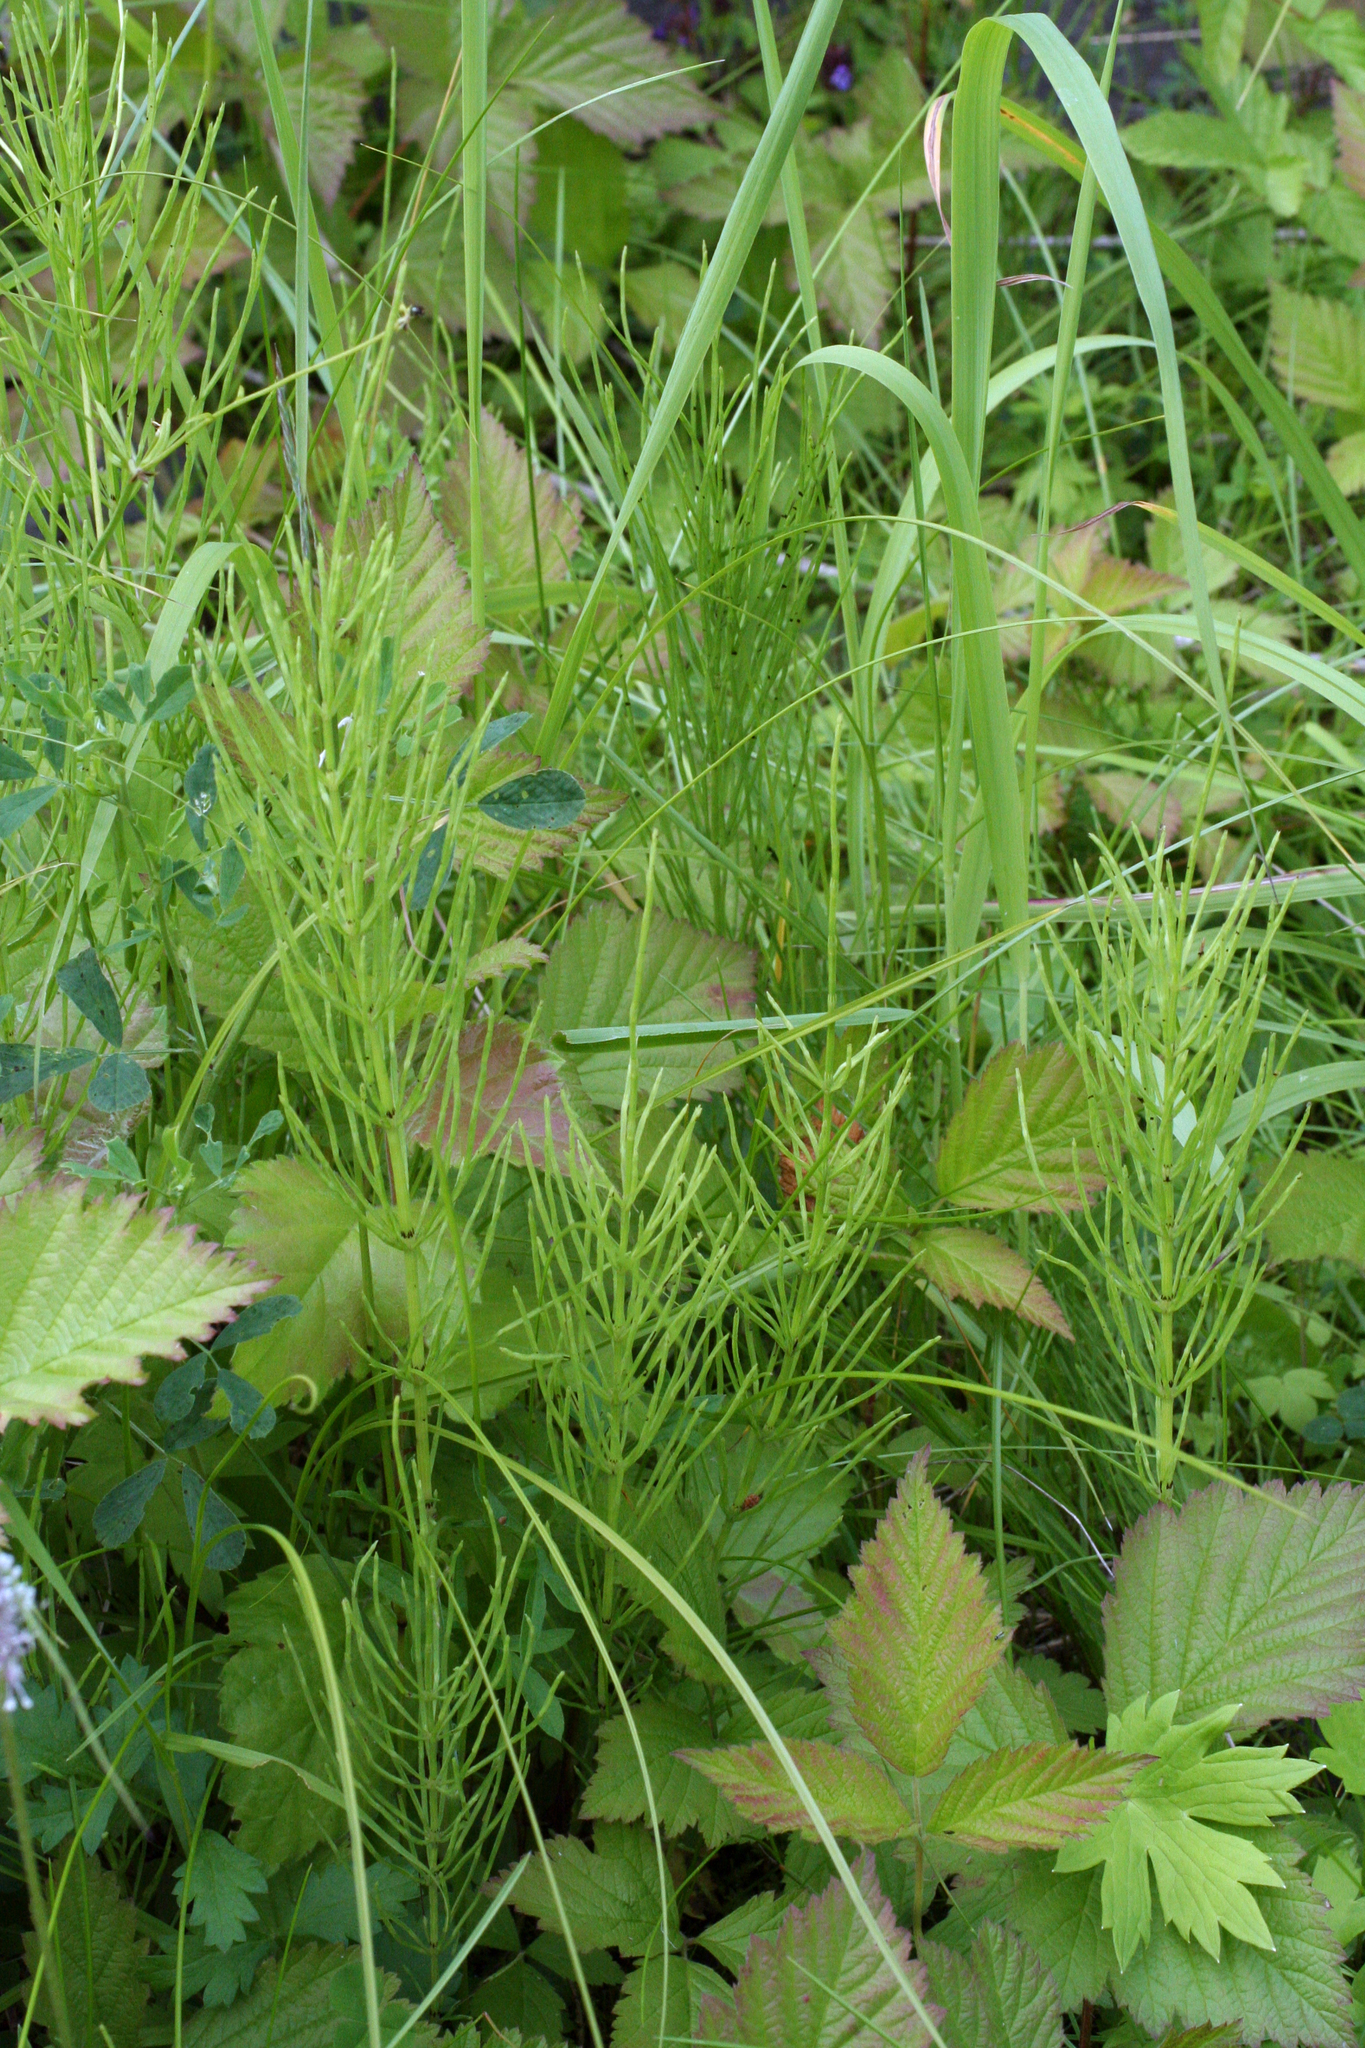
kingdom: Plantae
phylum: Tracheophyta
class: Polypodiopsida
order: Equisetales
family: Equisetaceae
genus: Equisetum
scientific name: Equisetum arvense
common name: Field horsetail
